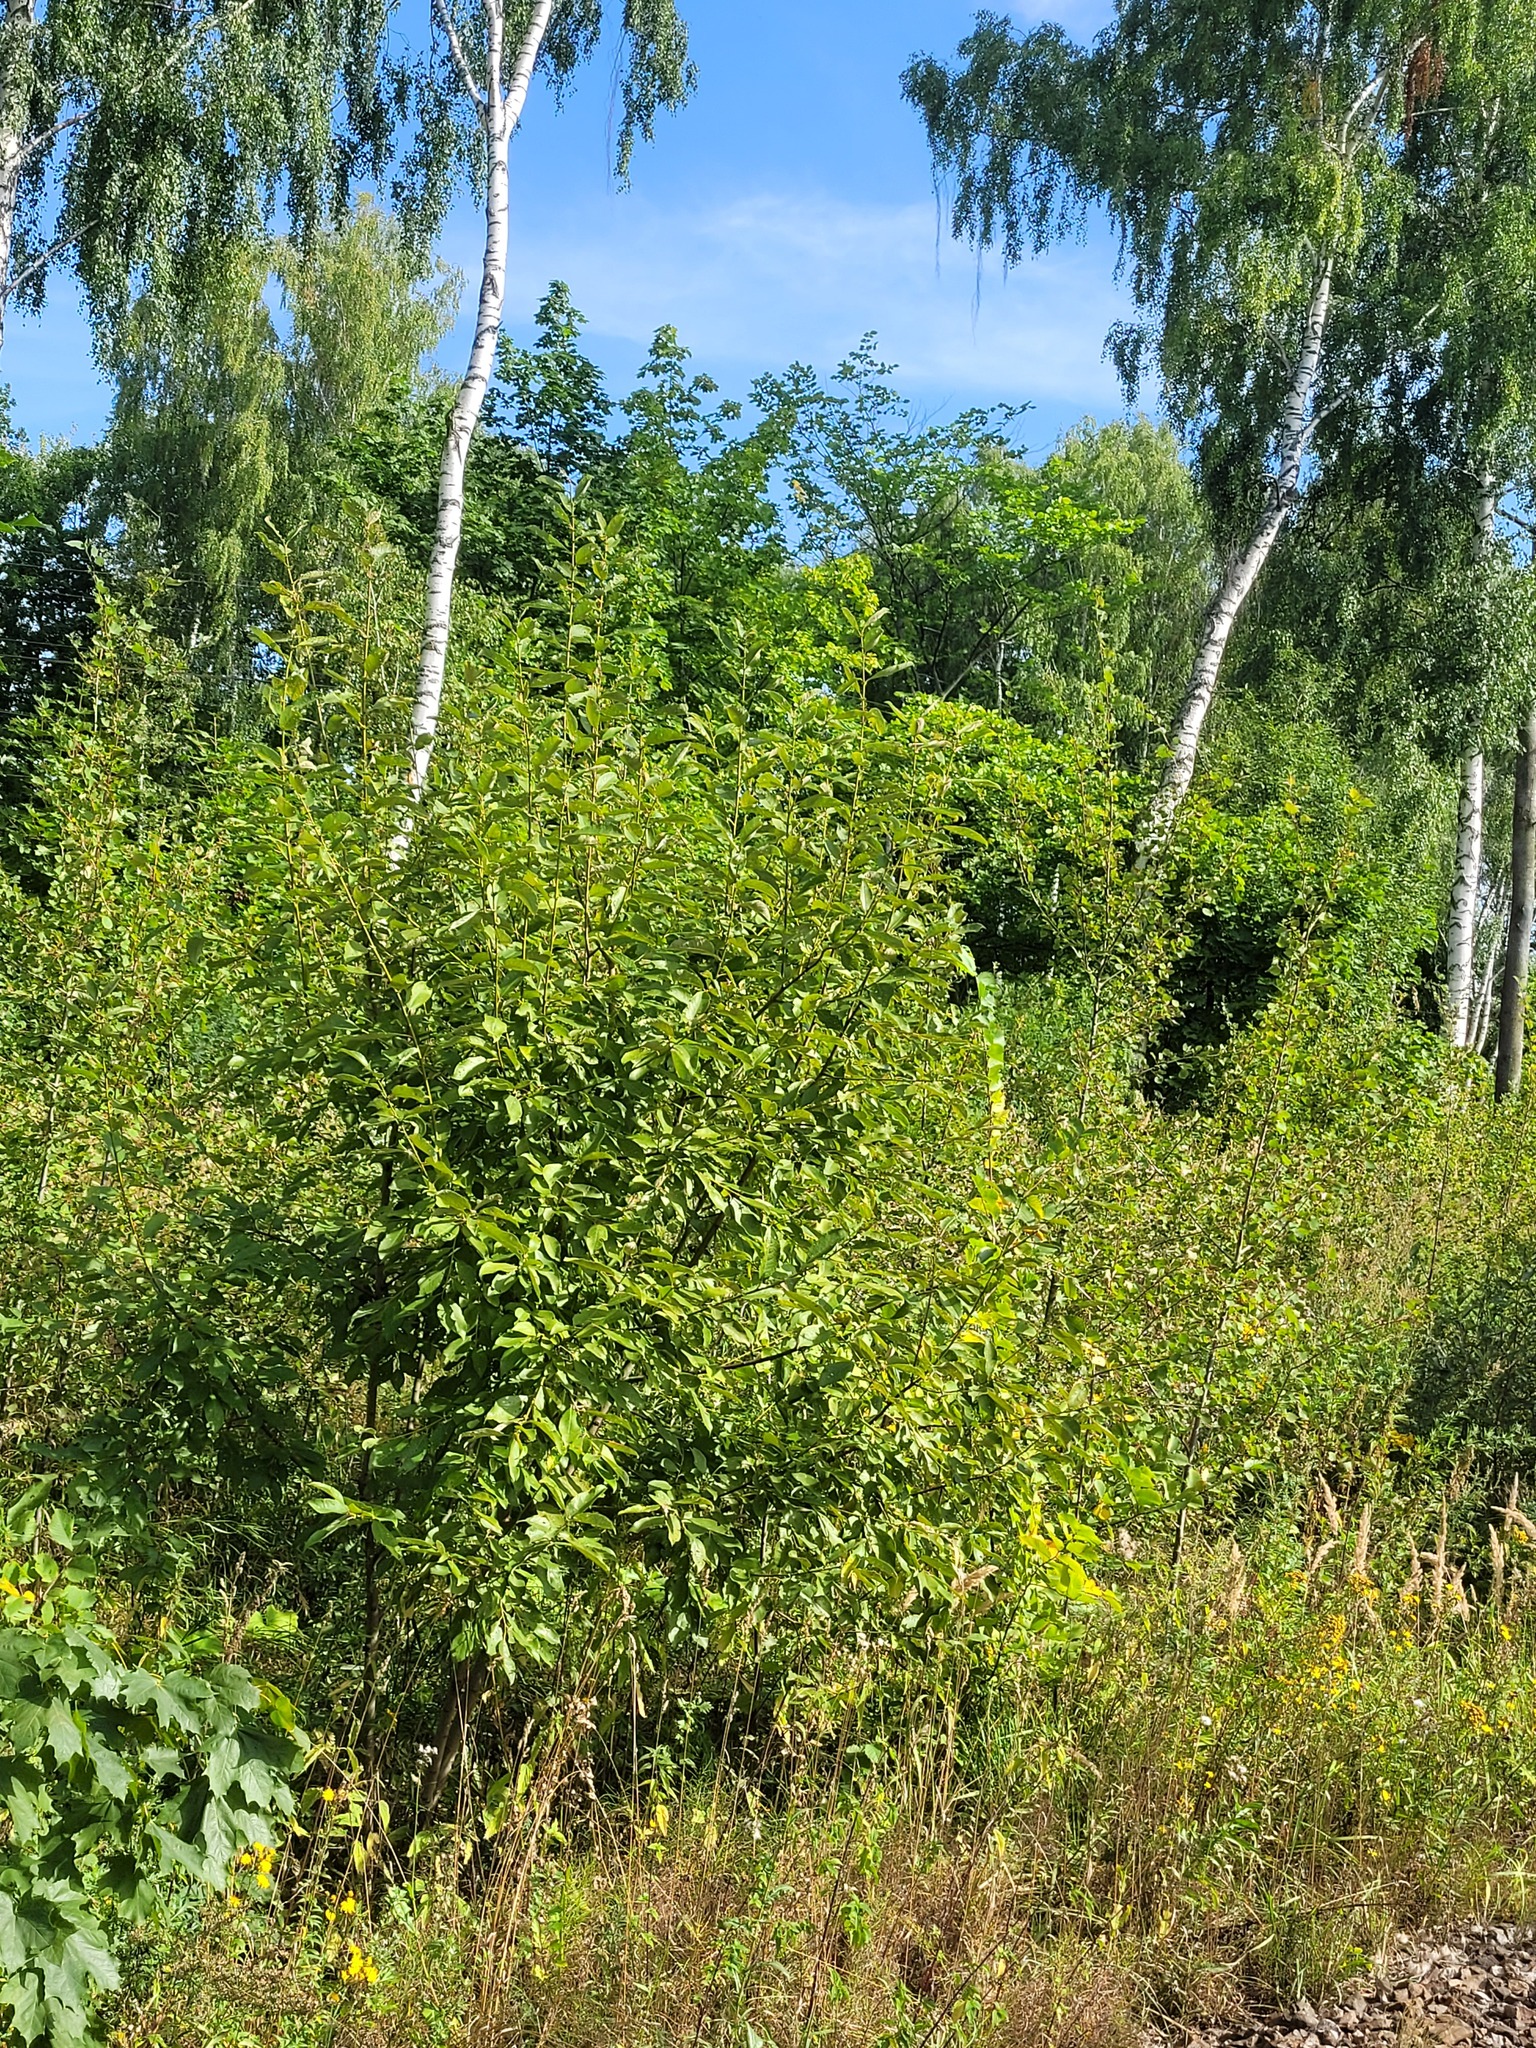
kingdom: Plantae
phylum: Tracheophyta
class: Magnoliopsida
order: Malpighiales
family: Salicaceae
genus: Salix
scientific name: Salix caprea
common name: Goat willow
